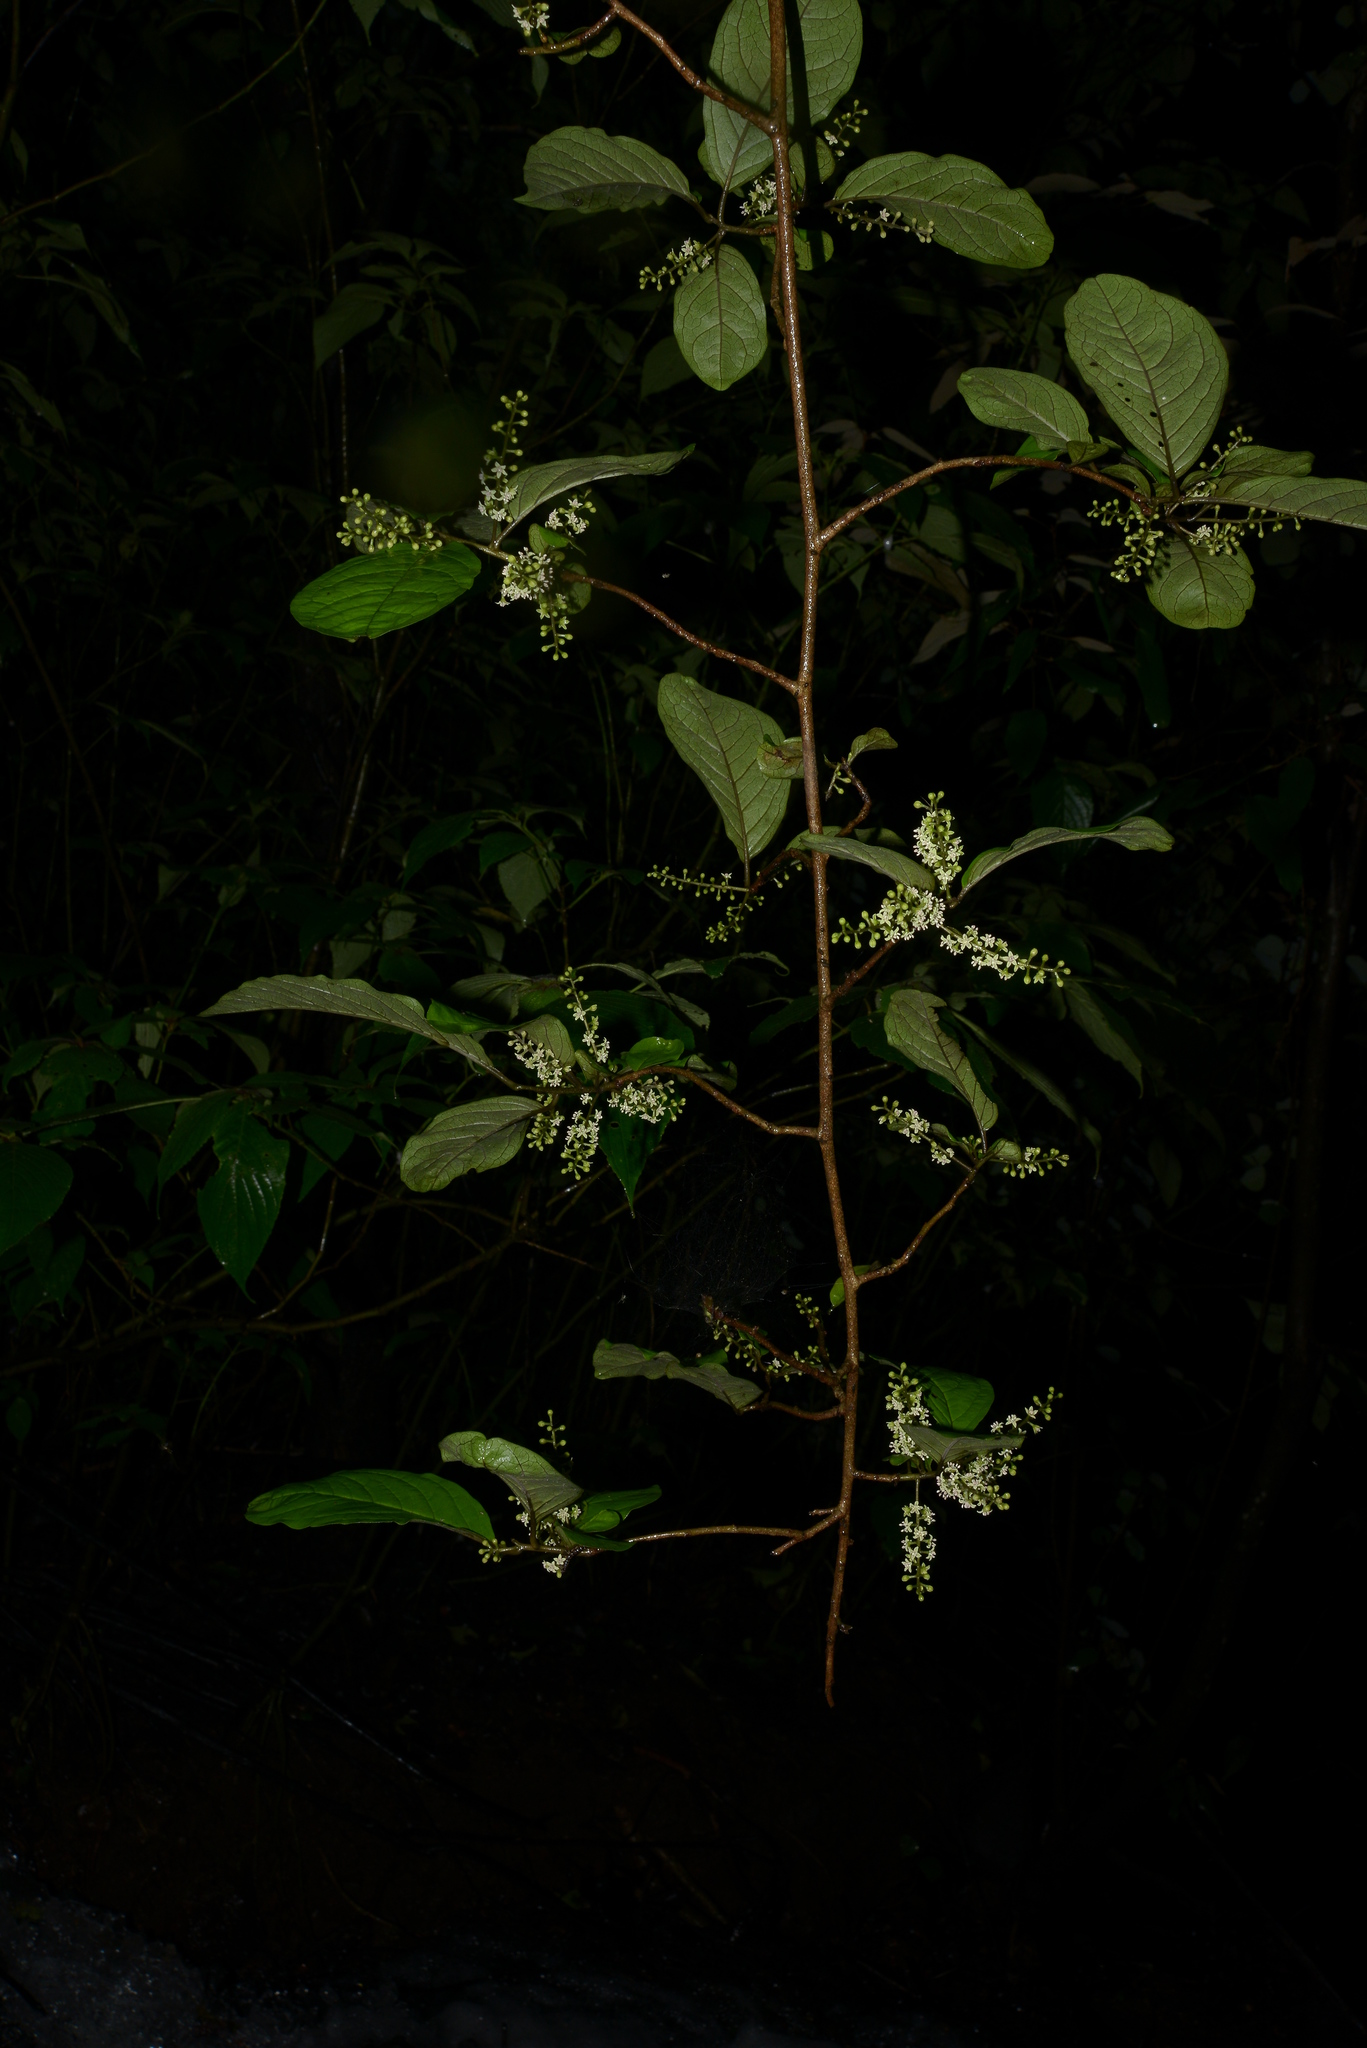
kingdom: Plantae
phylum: Tracheophyta
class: Magnoliopsida
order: Ericales
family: Primulaceae
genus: Embelia
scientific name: Embelia tsjeriam-cottam
